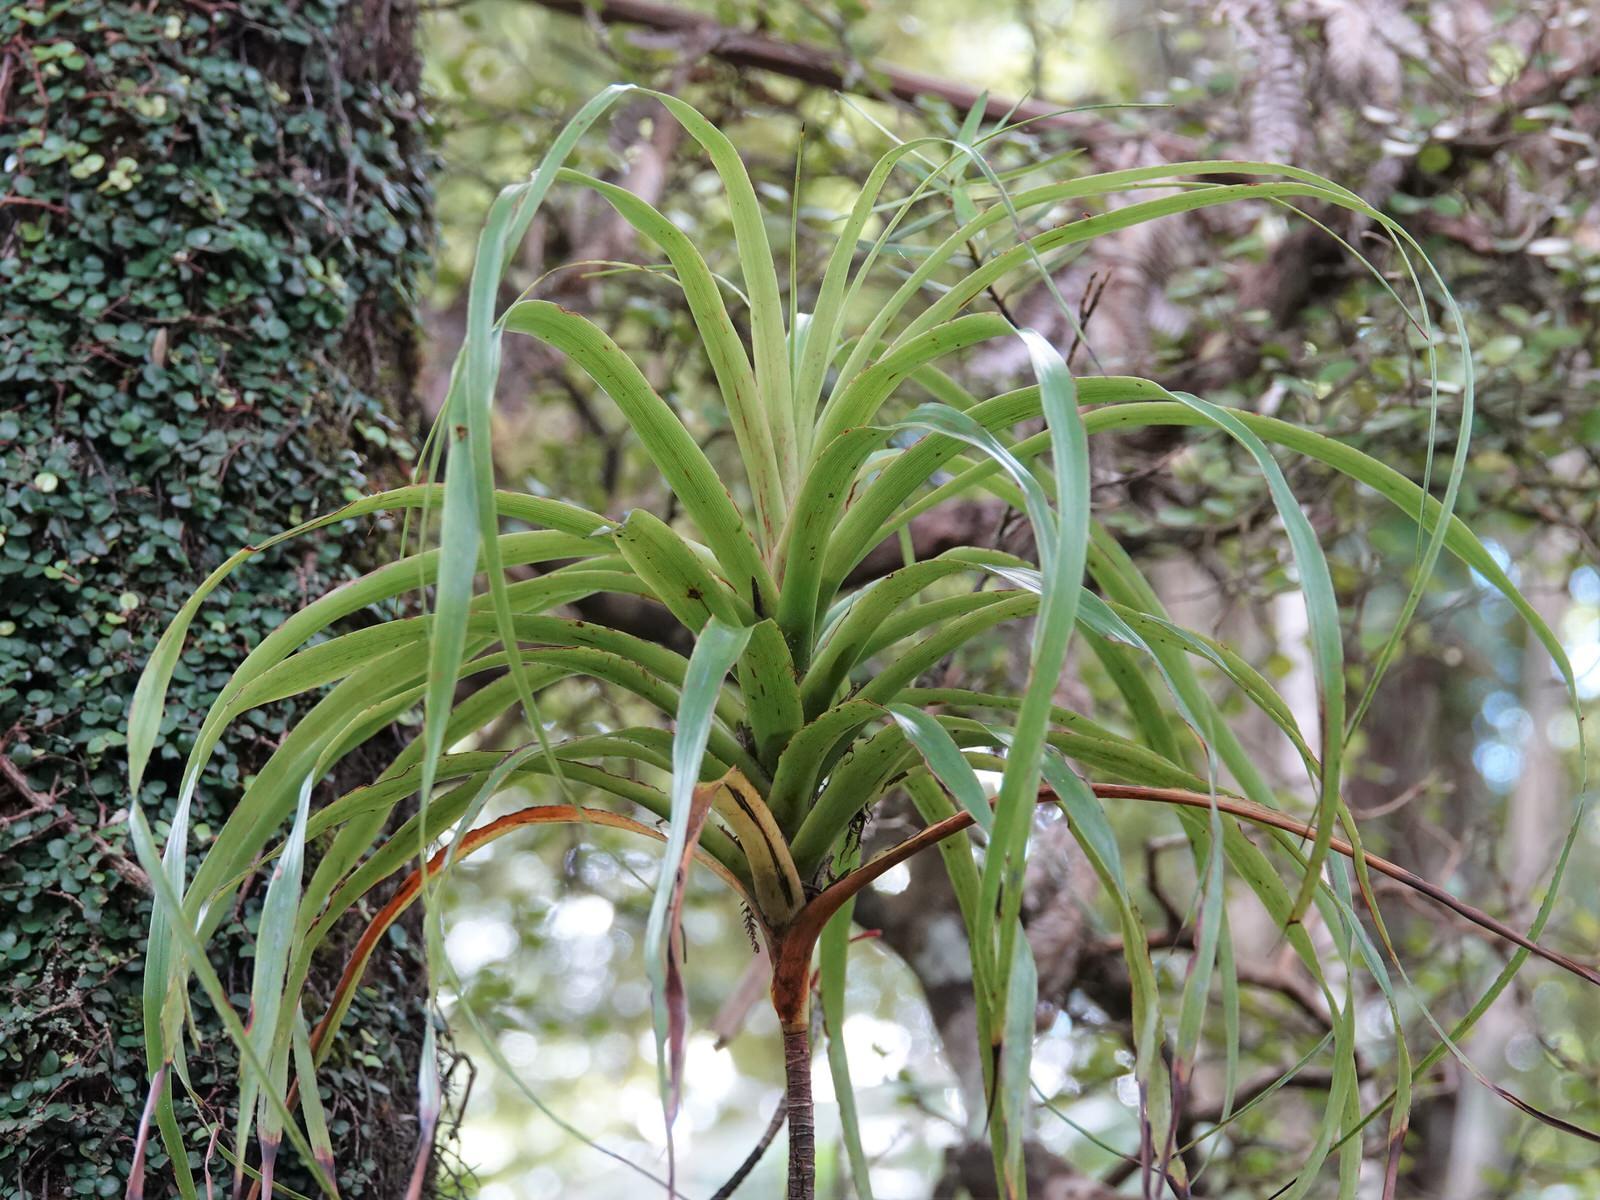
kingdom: Plantae
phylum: Tracheophyta
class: Magnoliopsida
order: Ericales
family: Ericaceae
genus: Dracophyllum
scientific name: Dracophyllum latifolium
